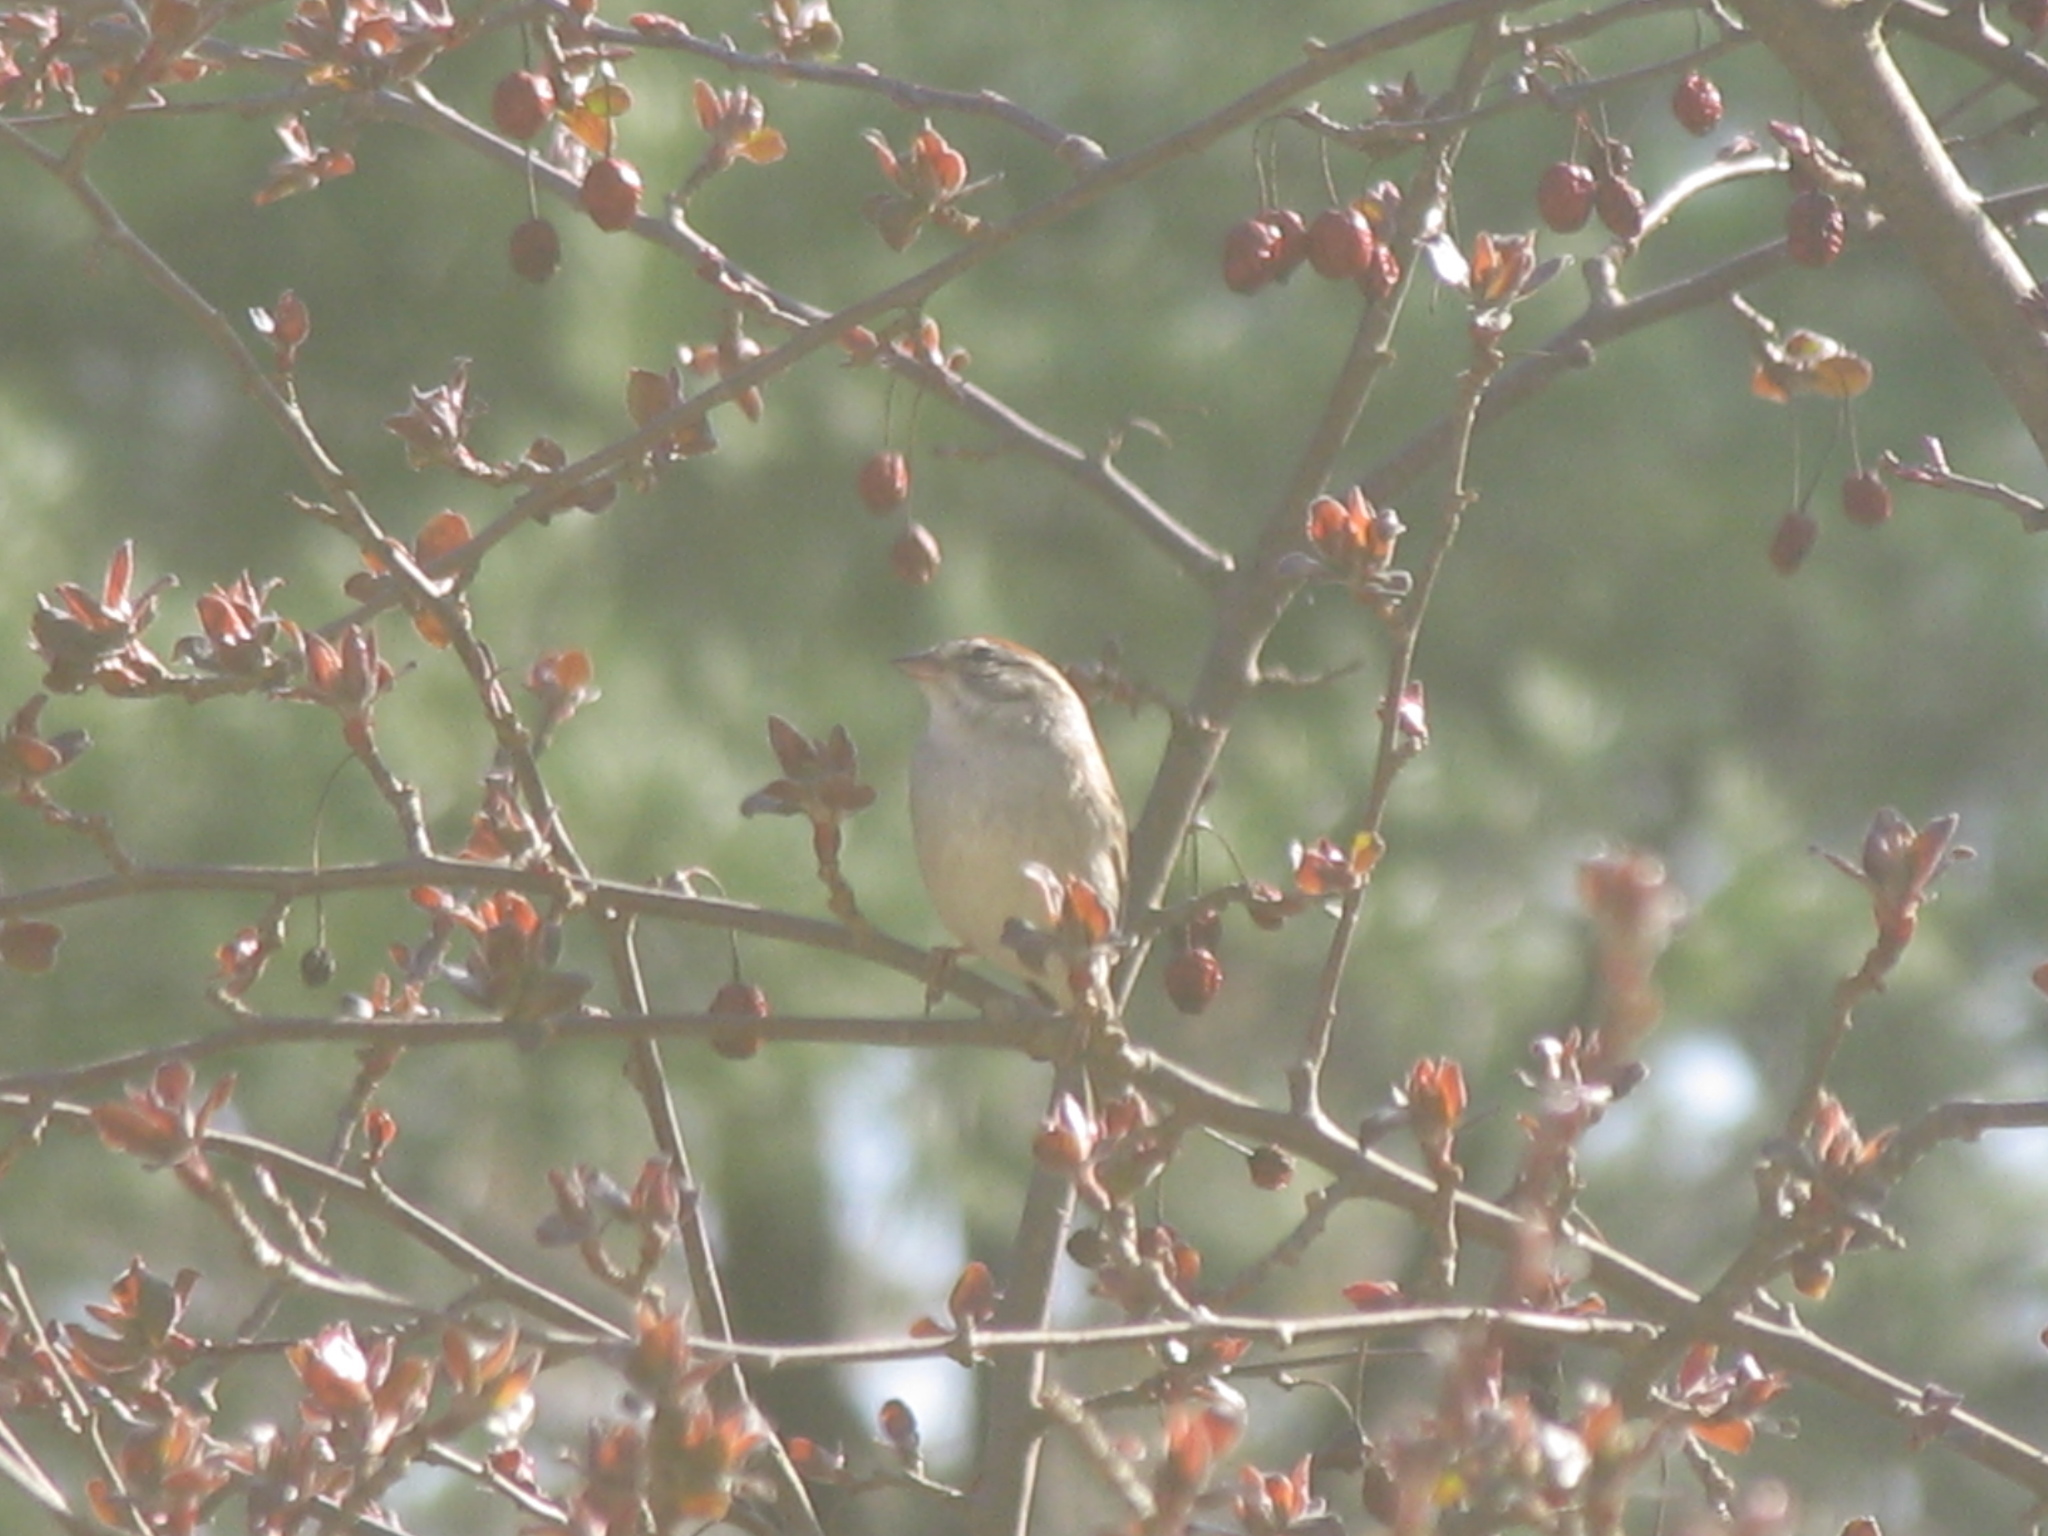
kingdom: Animalia
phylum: Chordata
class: Aves
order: Passeriformes
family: Passerellidae
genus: Spizella
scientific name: Spizella passerina
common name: Chipping sparrow
